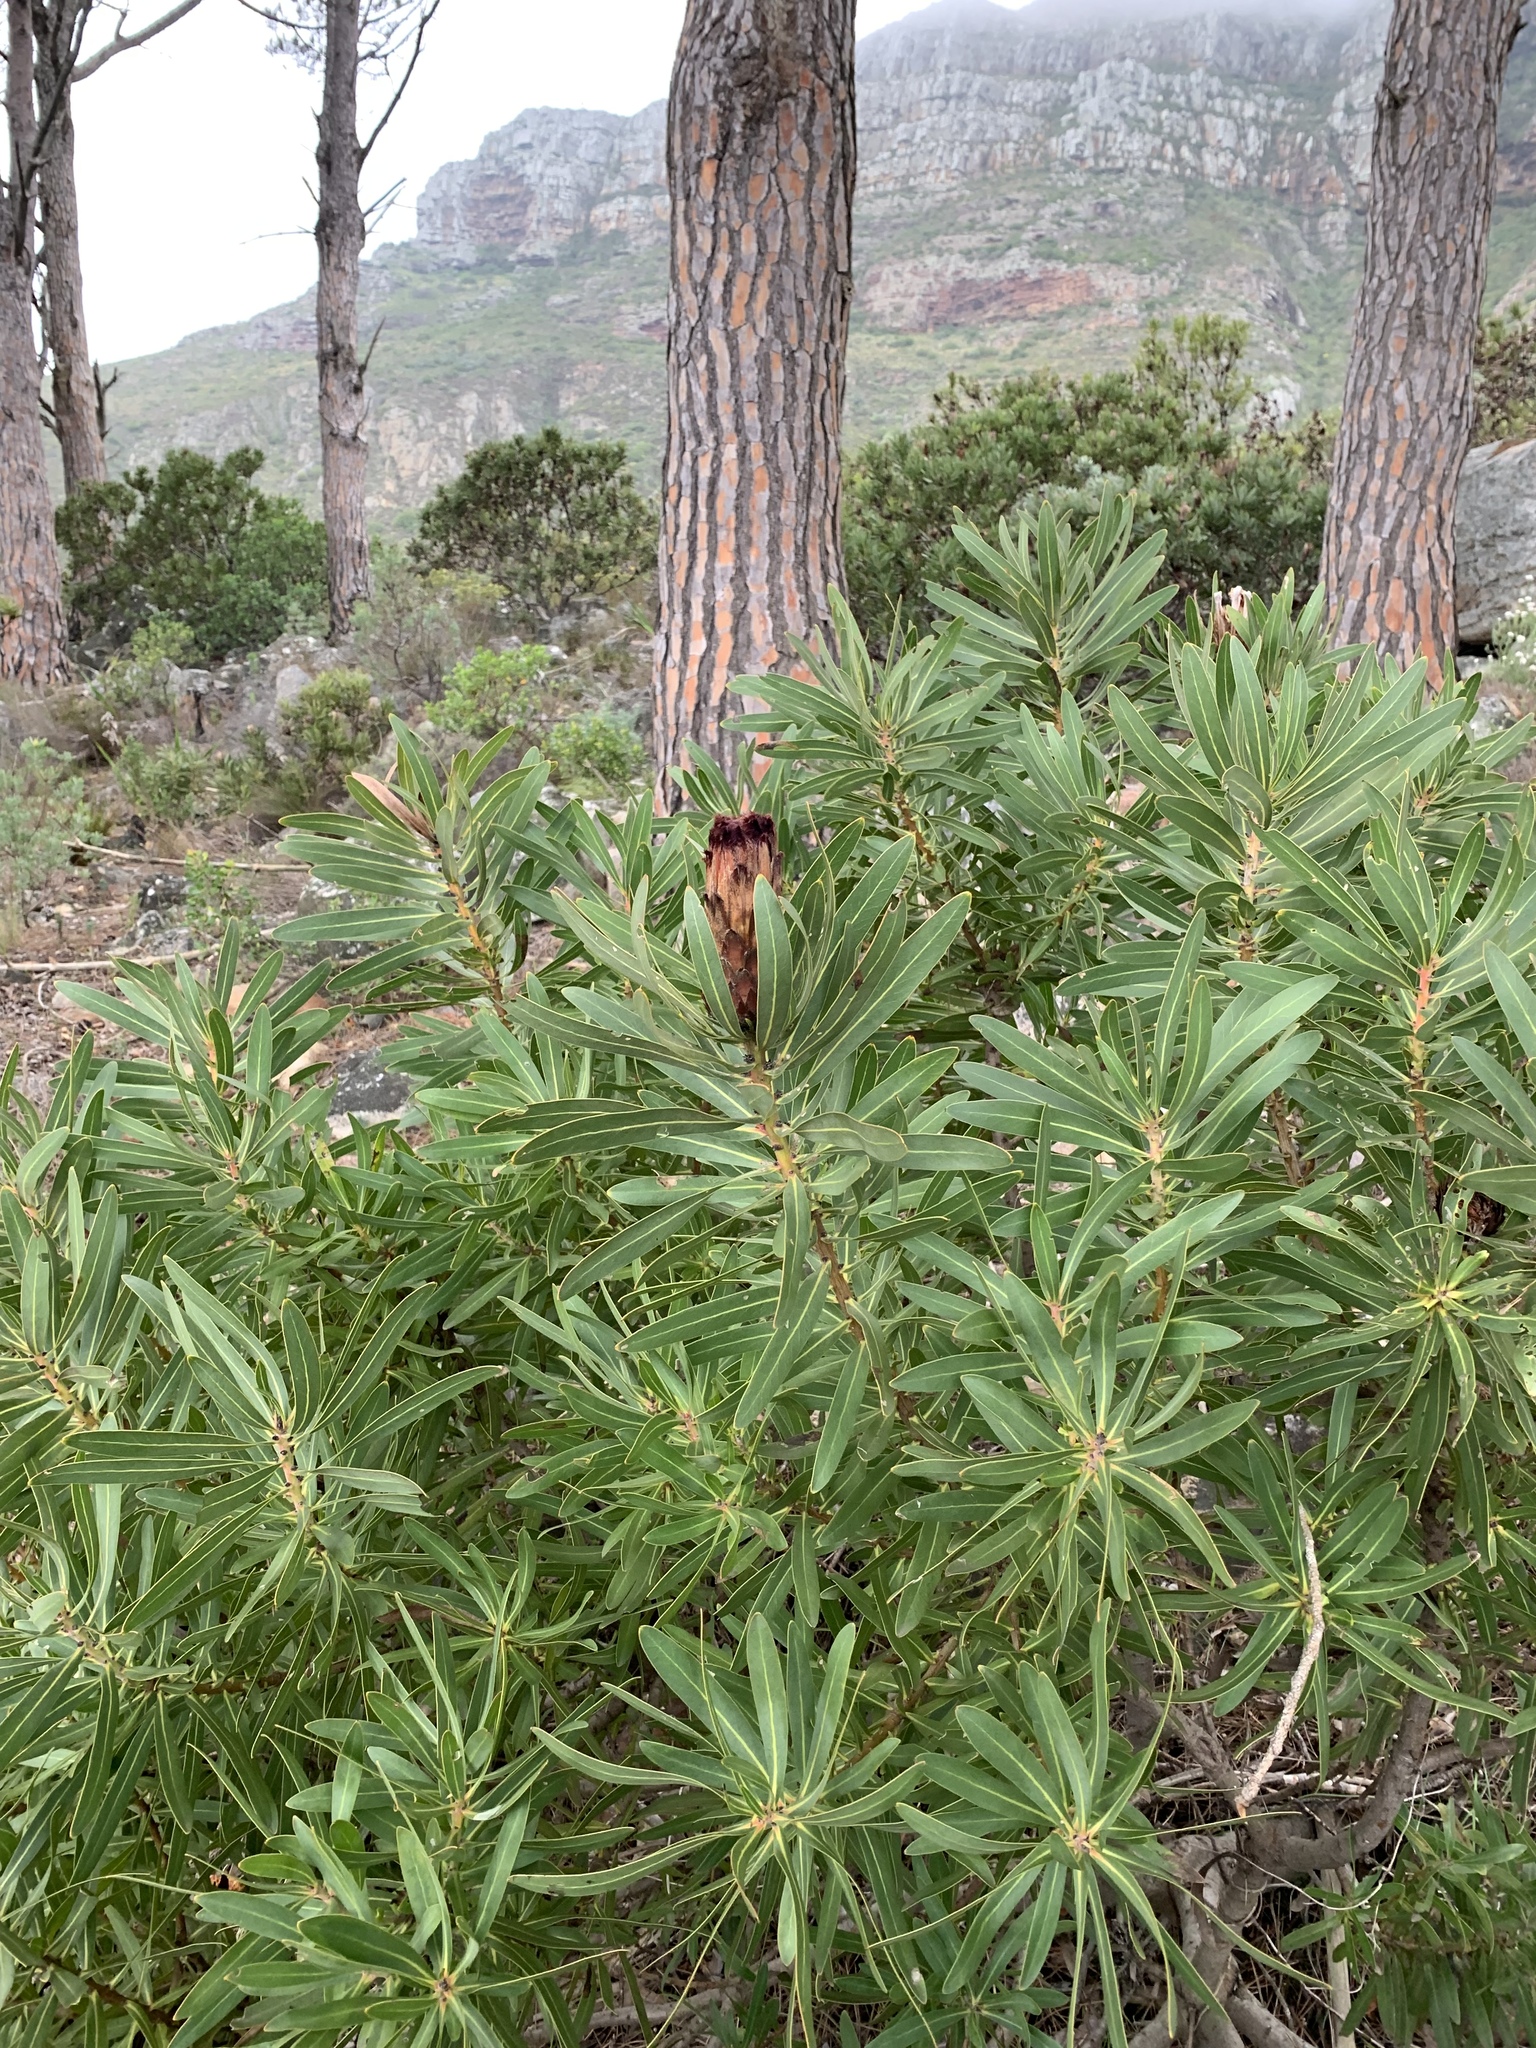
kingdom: Bacteria
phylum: Firmicutes
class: Bacilli
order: Acholeplasmatales
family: Acholeplasmataceae
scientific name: Acholeplasmataceae
